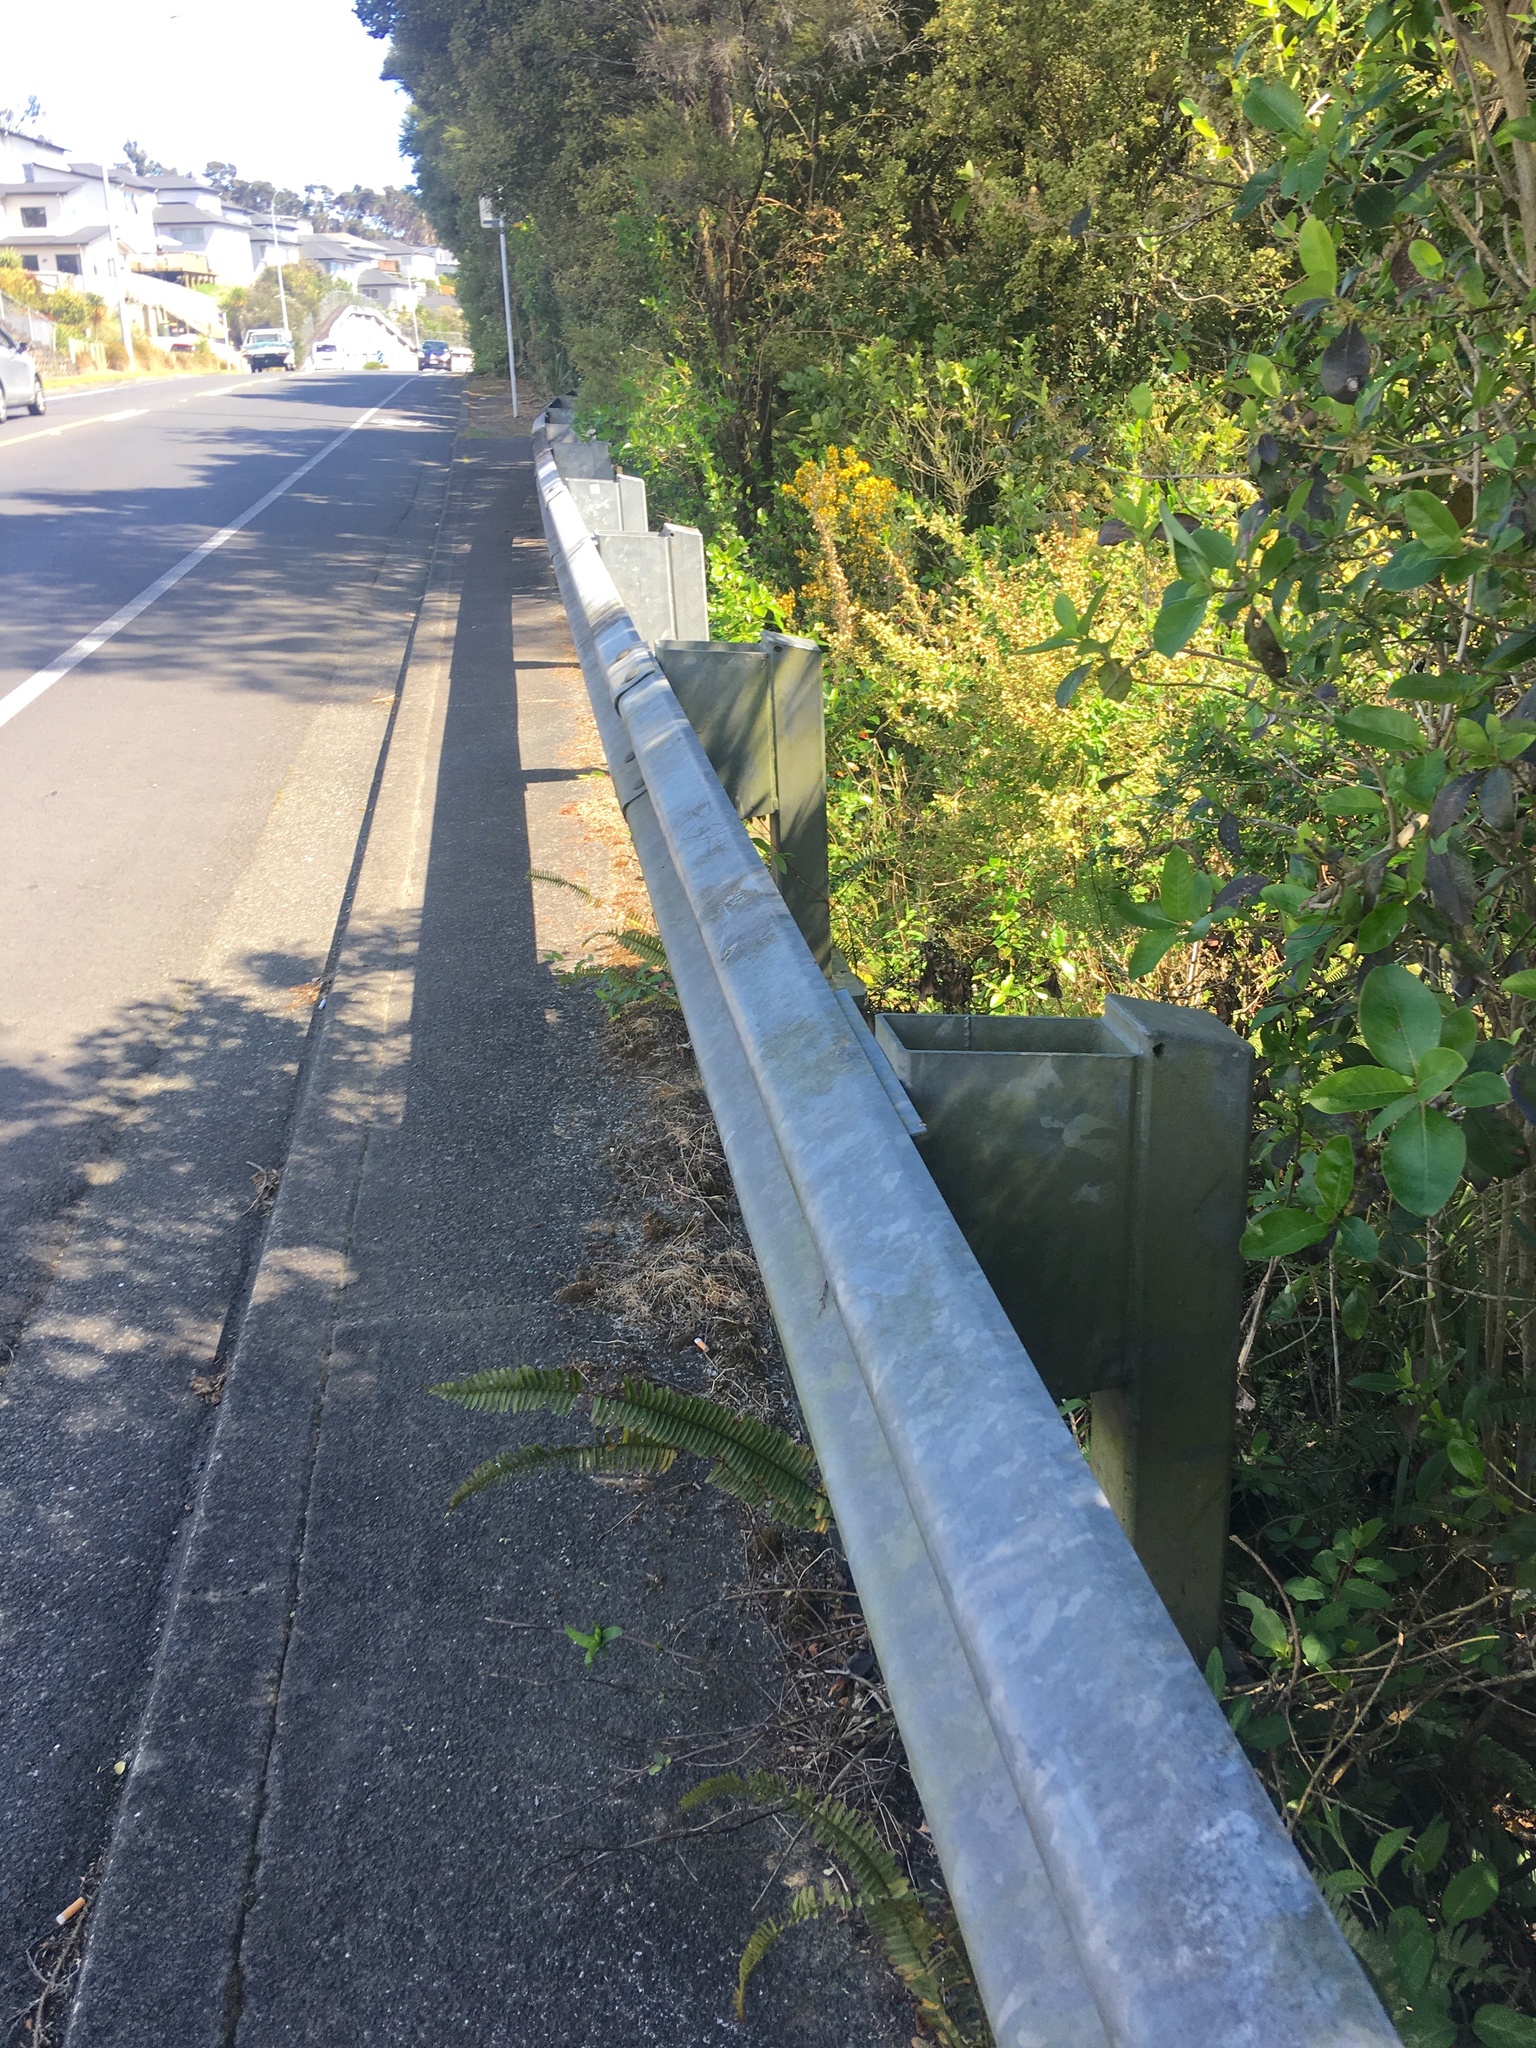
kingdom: Plantae
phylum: Tracheophyta
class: Magnoliopsida
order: Dipsacales
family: Caprifoliaceae
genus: Lonicera
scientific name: Lonicera japonica
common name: Japanese honeysuckle
